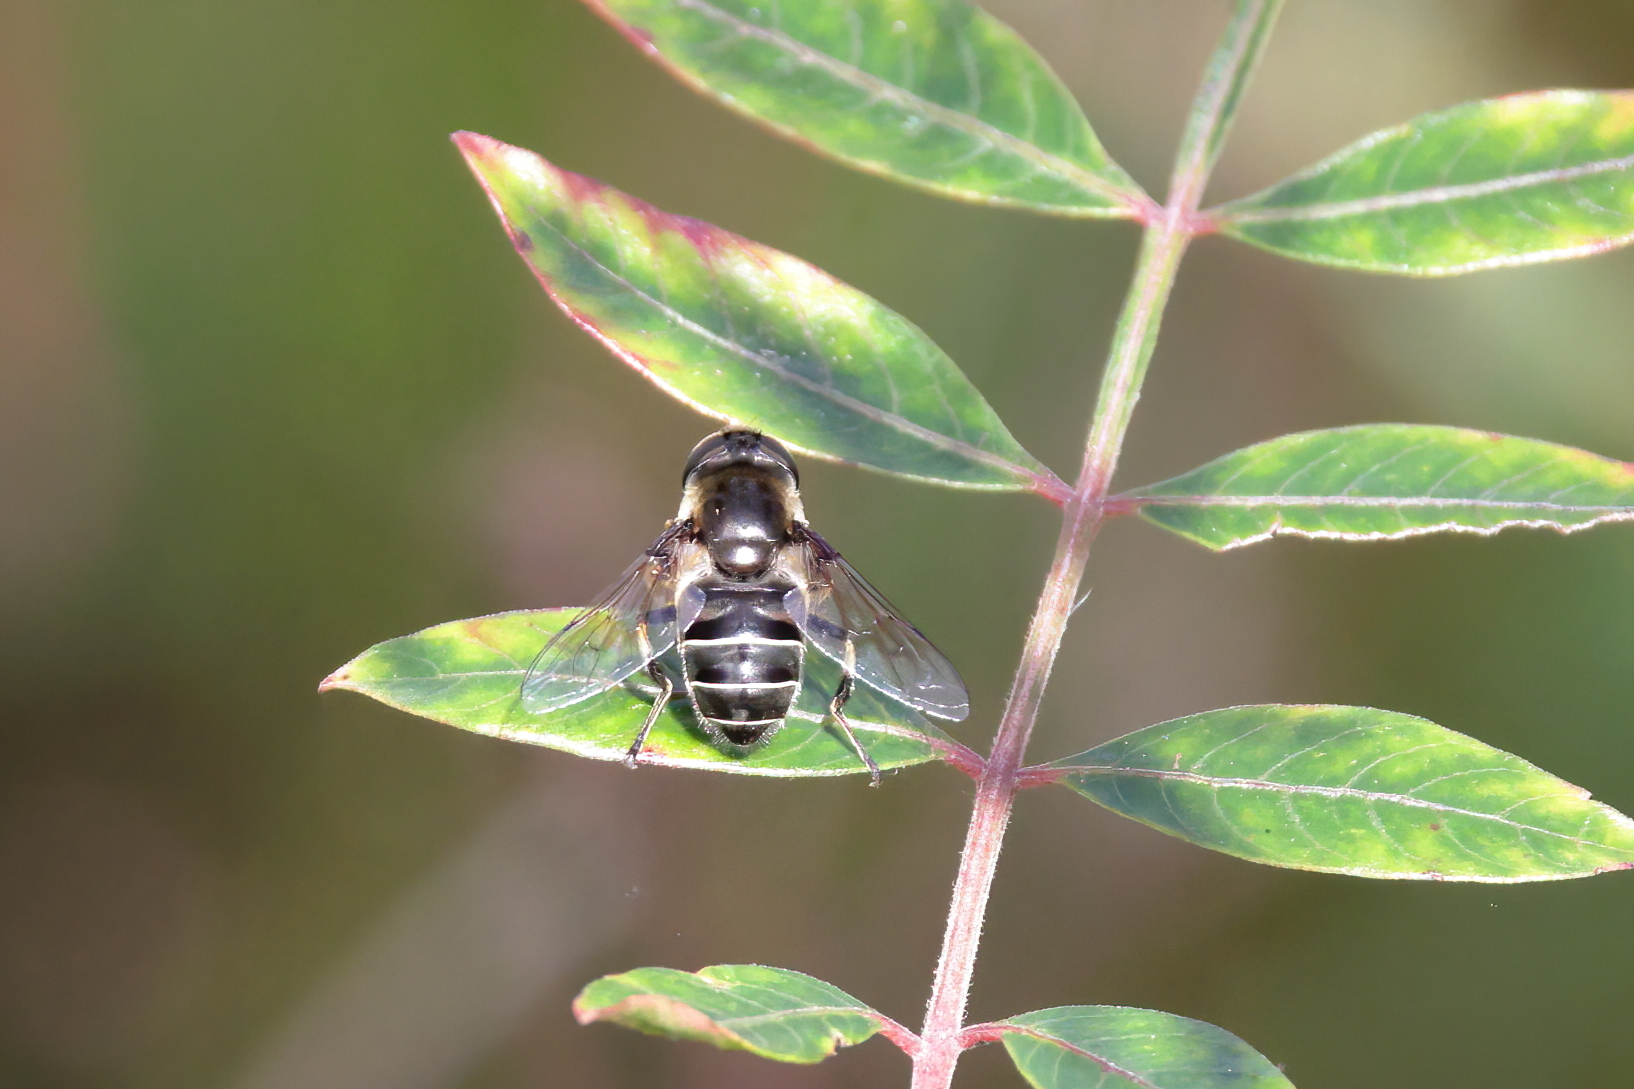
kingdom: Animalia
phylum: Arthropoda
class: Insecta
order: Diptera
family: Syrphidae
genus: Eristalis
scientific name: Eristalis dimidiata
